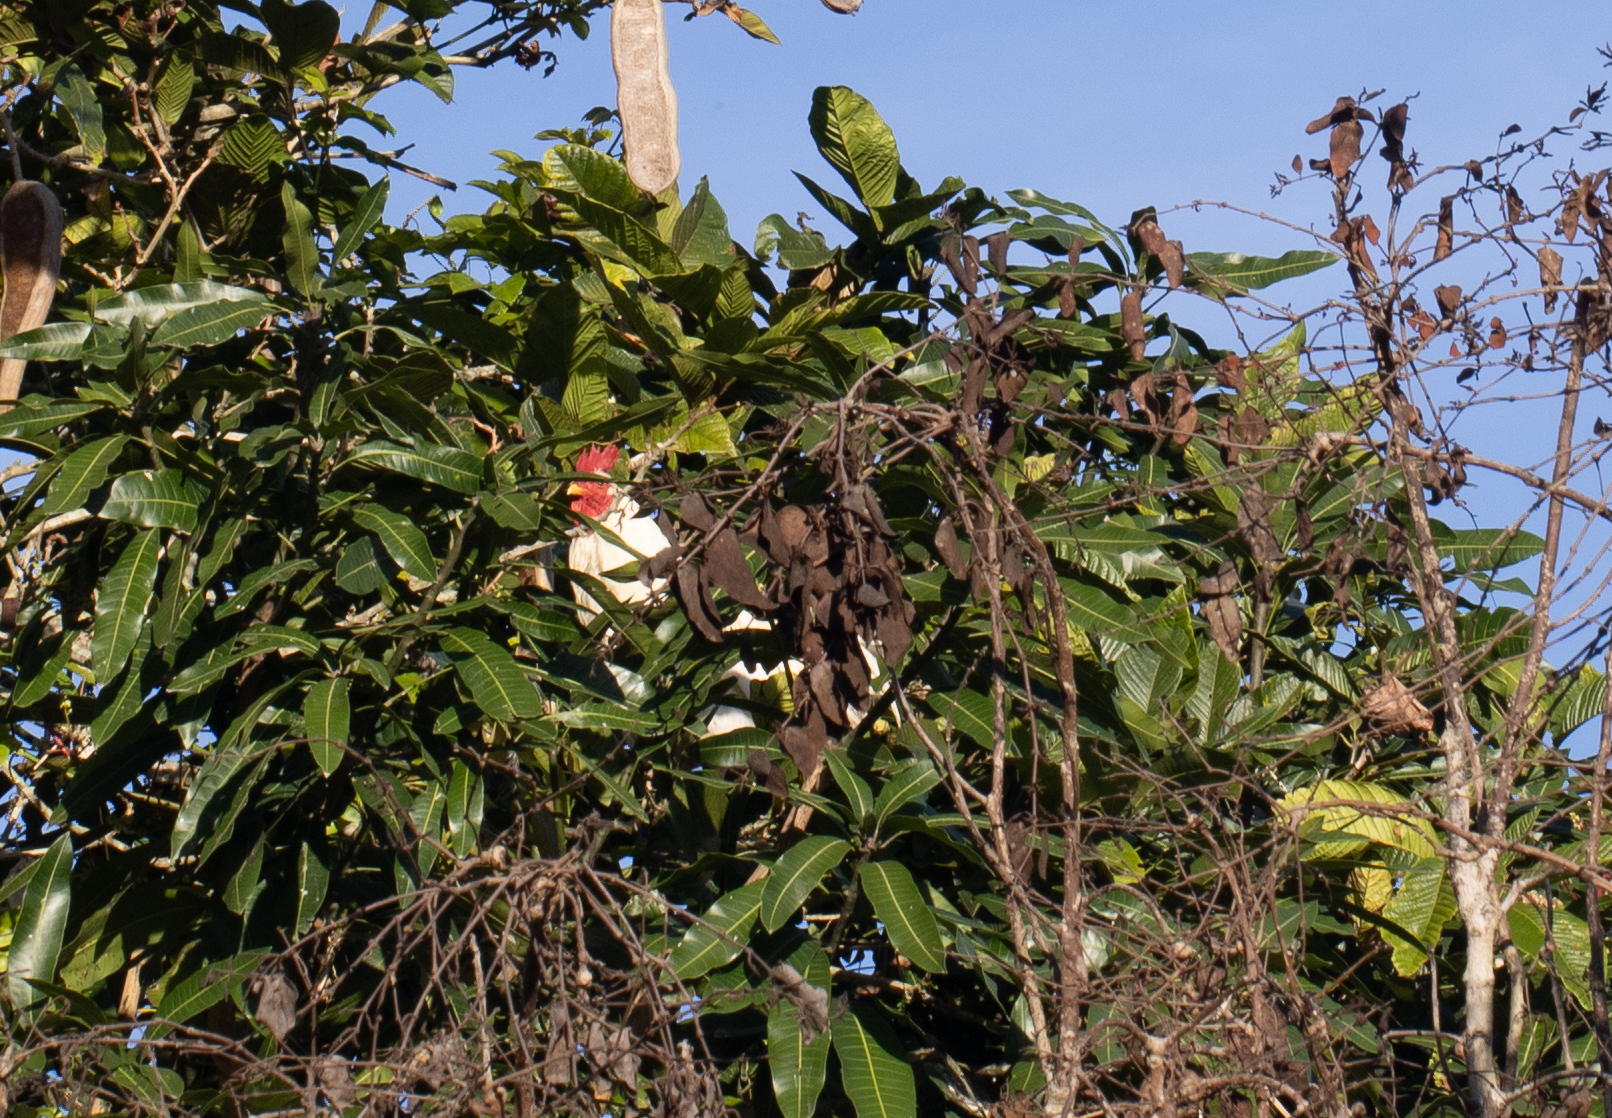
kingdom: Animalia
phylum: Chordata
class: Aves
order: Galliformes
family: Phasianidae
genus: Gallus
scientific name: Gallus gallus
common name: Red junglefowl
